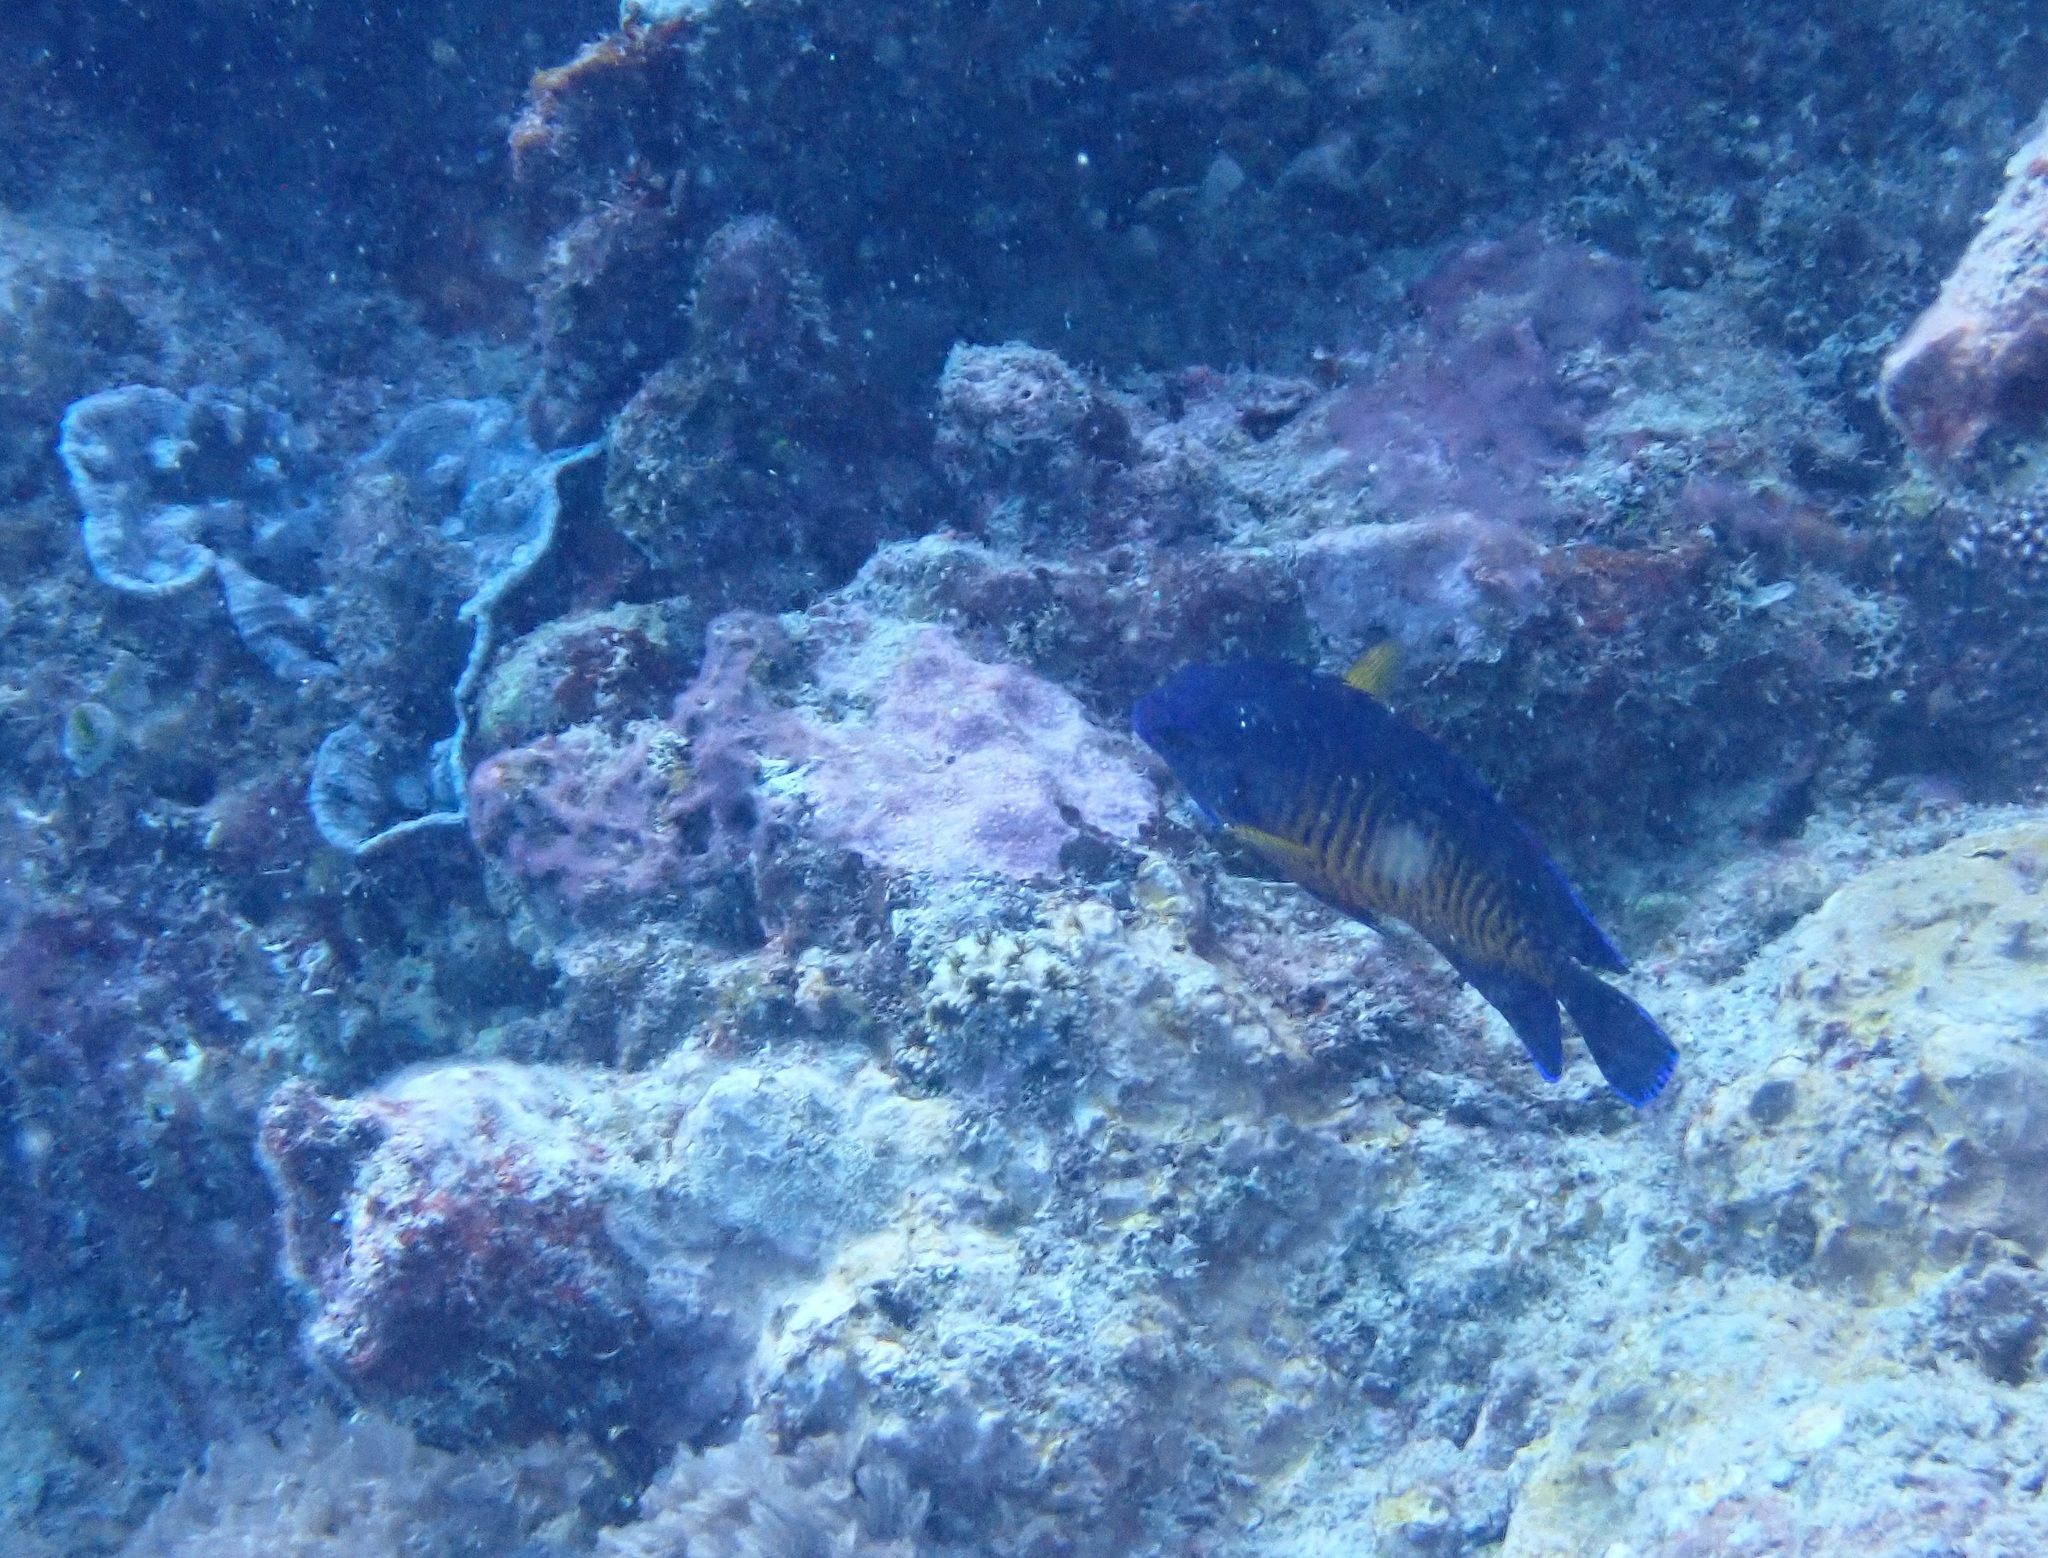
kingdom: Animalia
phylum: Chordata
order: Perciformes
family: Pomacanthidae
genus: Centropyge
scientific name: Centropyge bispinosa
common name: Coral beauty
